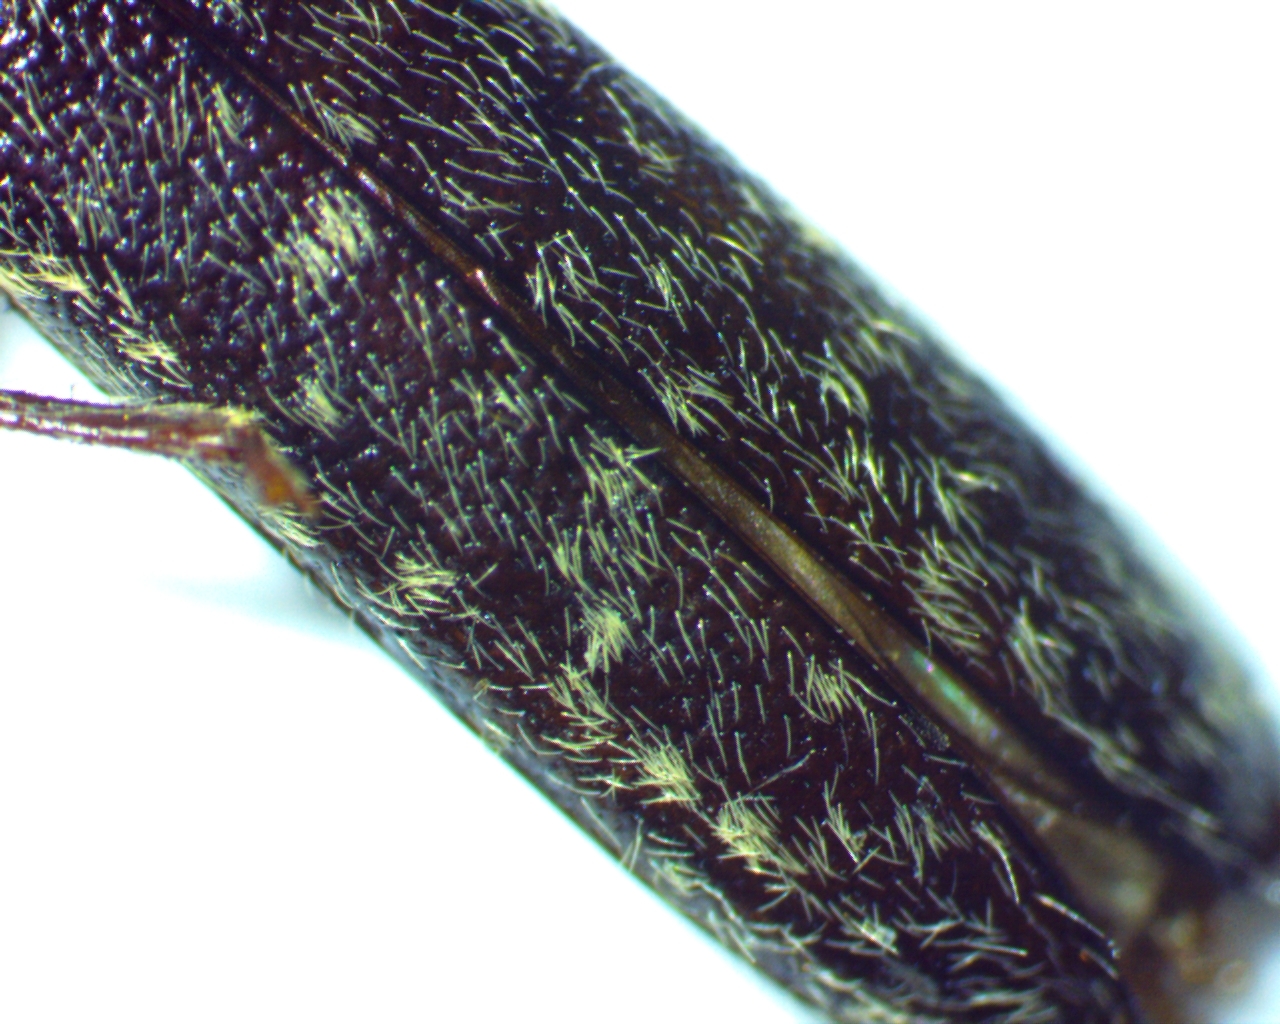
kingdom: Animalia
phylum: Arthropoda
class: Insecta
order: Coleoptera
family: Cerambycidae
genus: Anelaphus
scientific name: Anelaphus pumilus
